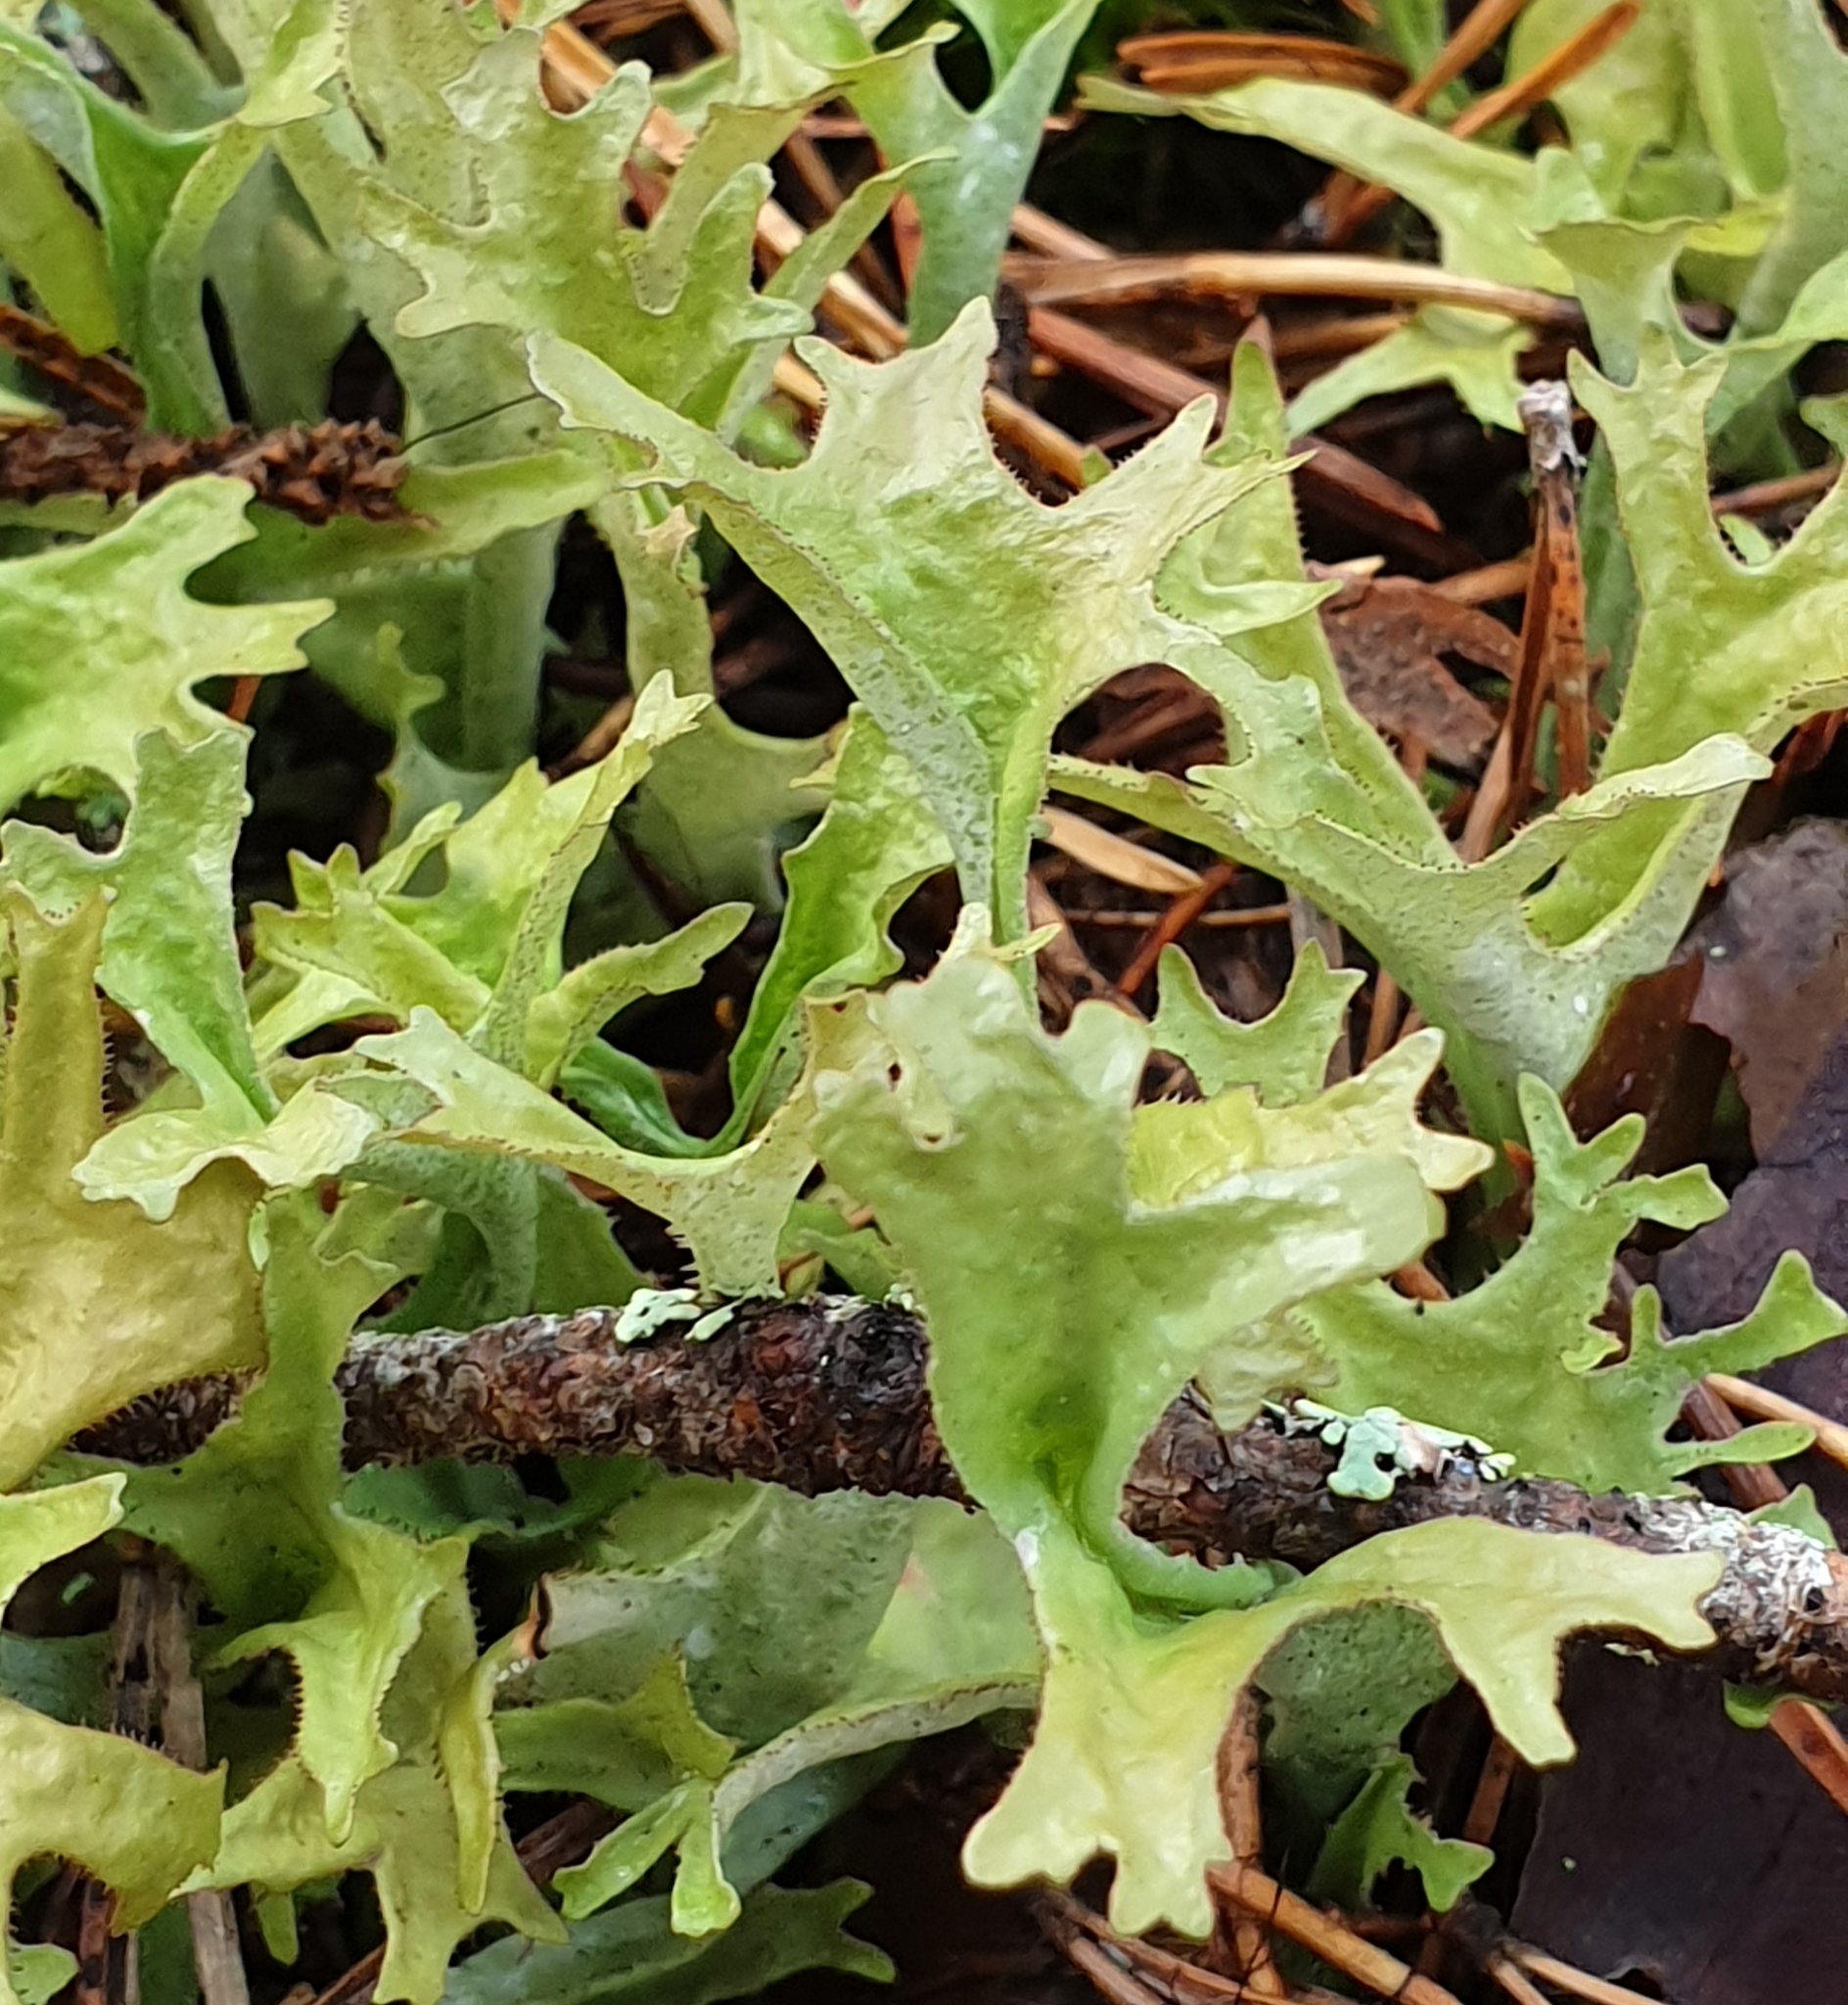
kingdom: Fungi
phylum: Ascomycota
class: Lecanoromycetes
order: Lecanorales
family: Parmeliaceae
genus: Cetraria
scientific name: Cetraria islandica
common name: Iceland lichen
